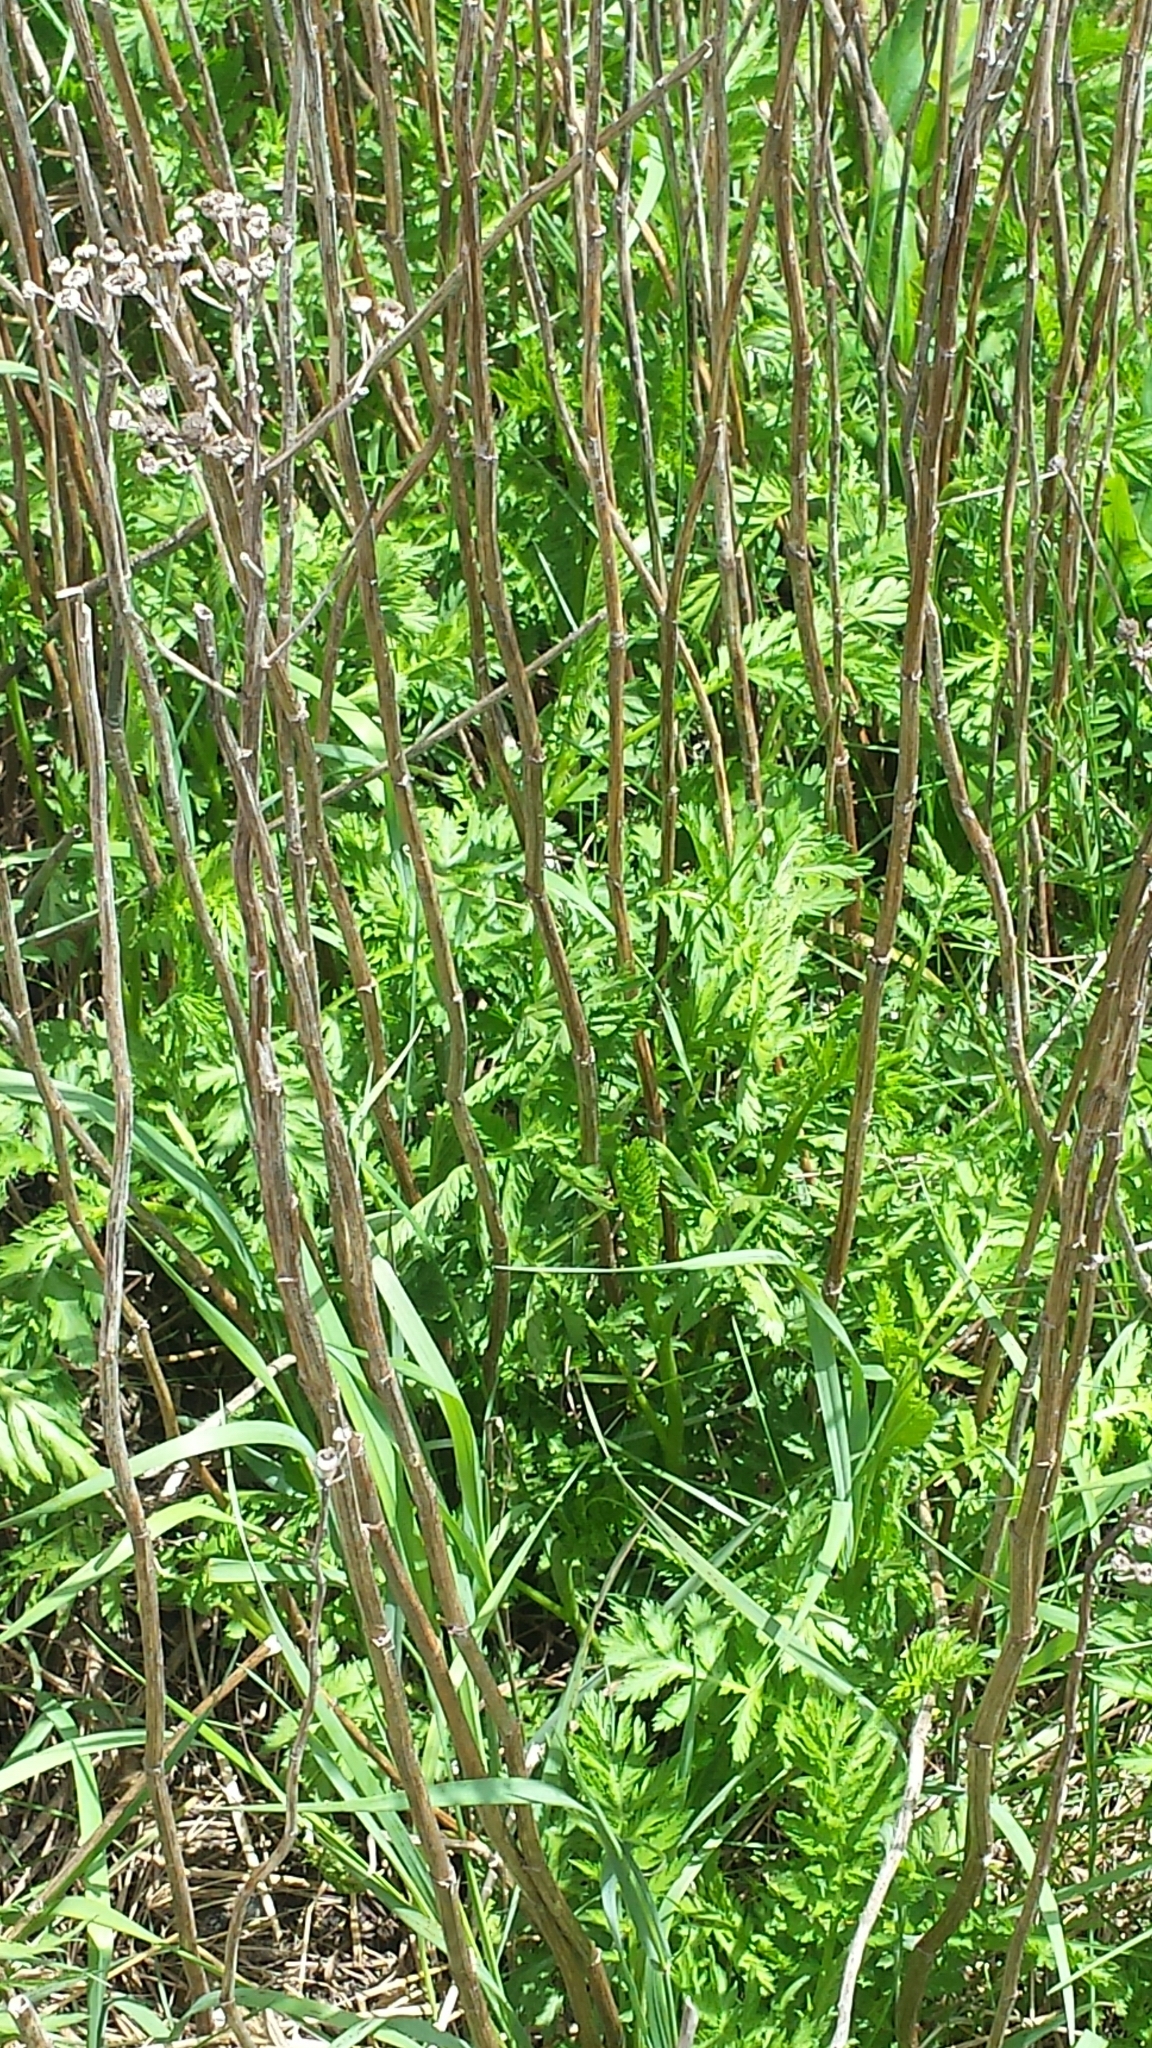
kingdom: Plantae
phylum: Tracheophyta
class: Magnoliopsida
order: Asterales
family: Asteraceae
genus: Tanacetum
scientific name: Tanacetum vulgare
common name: Common tansy
